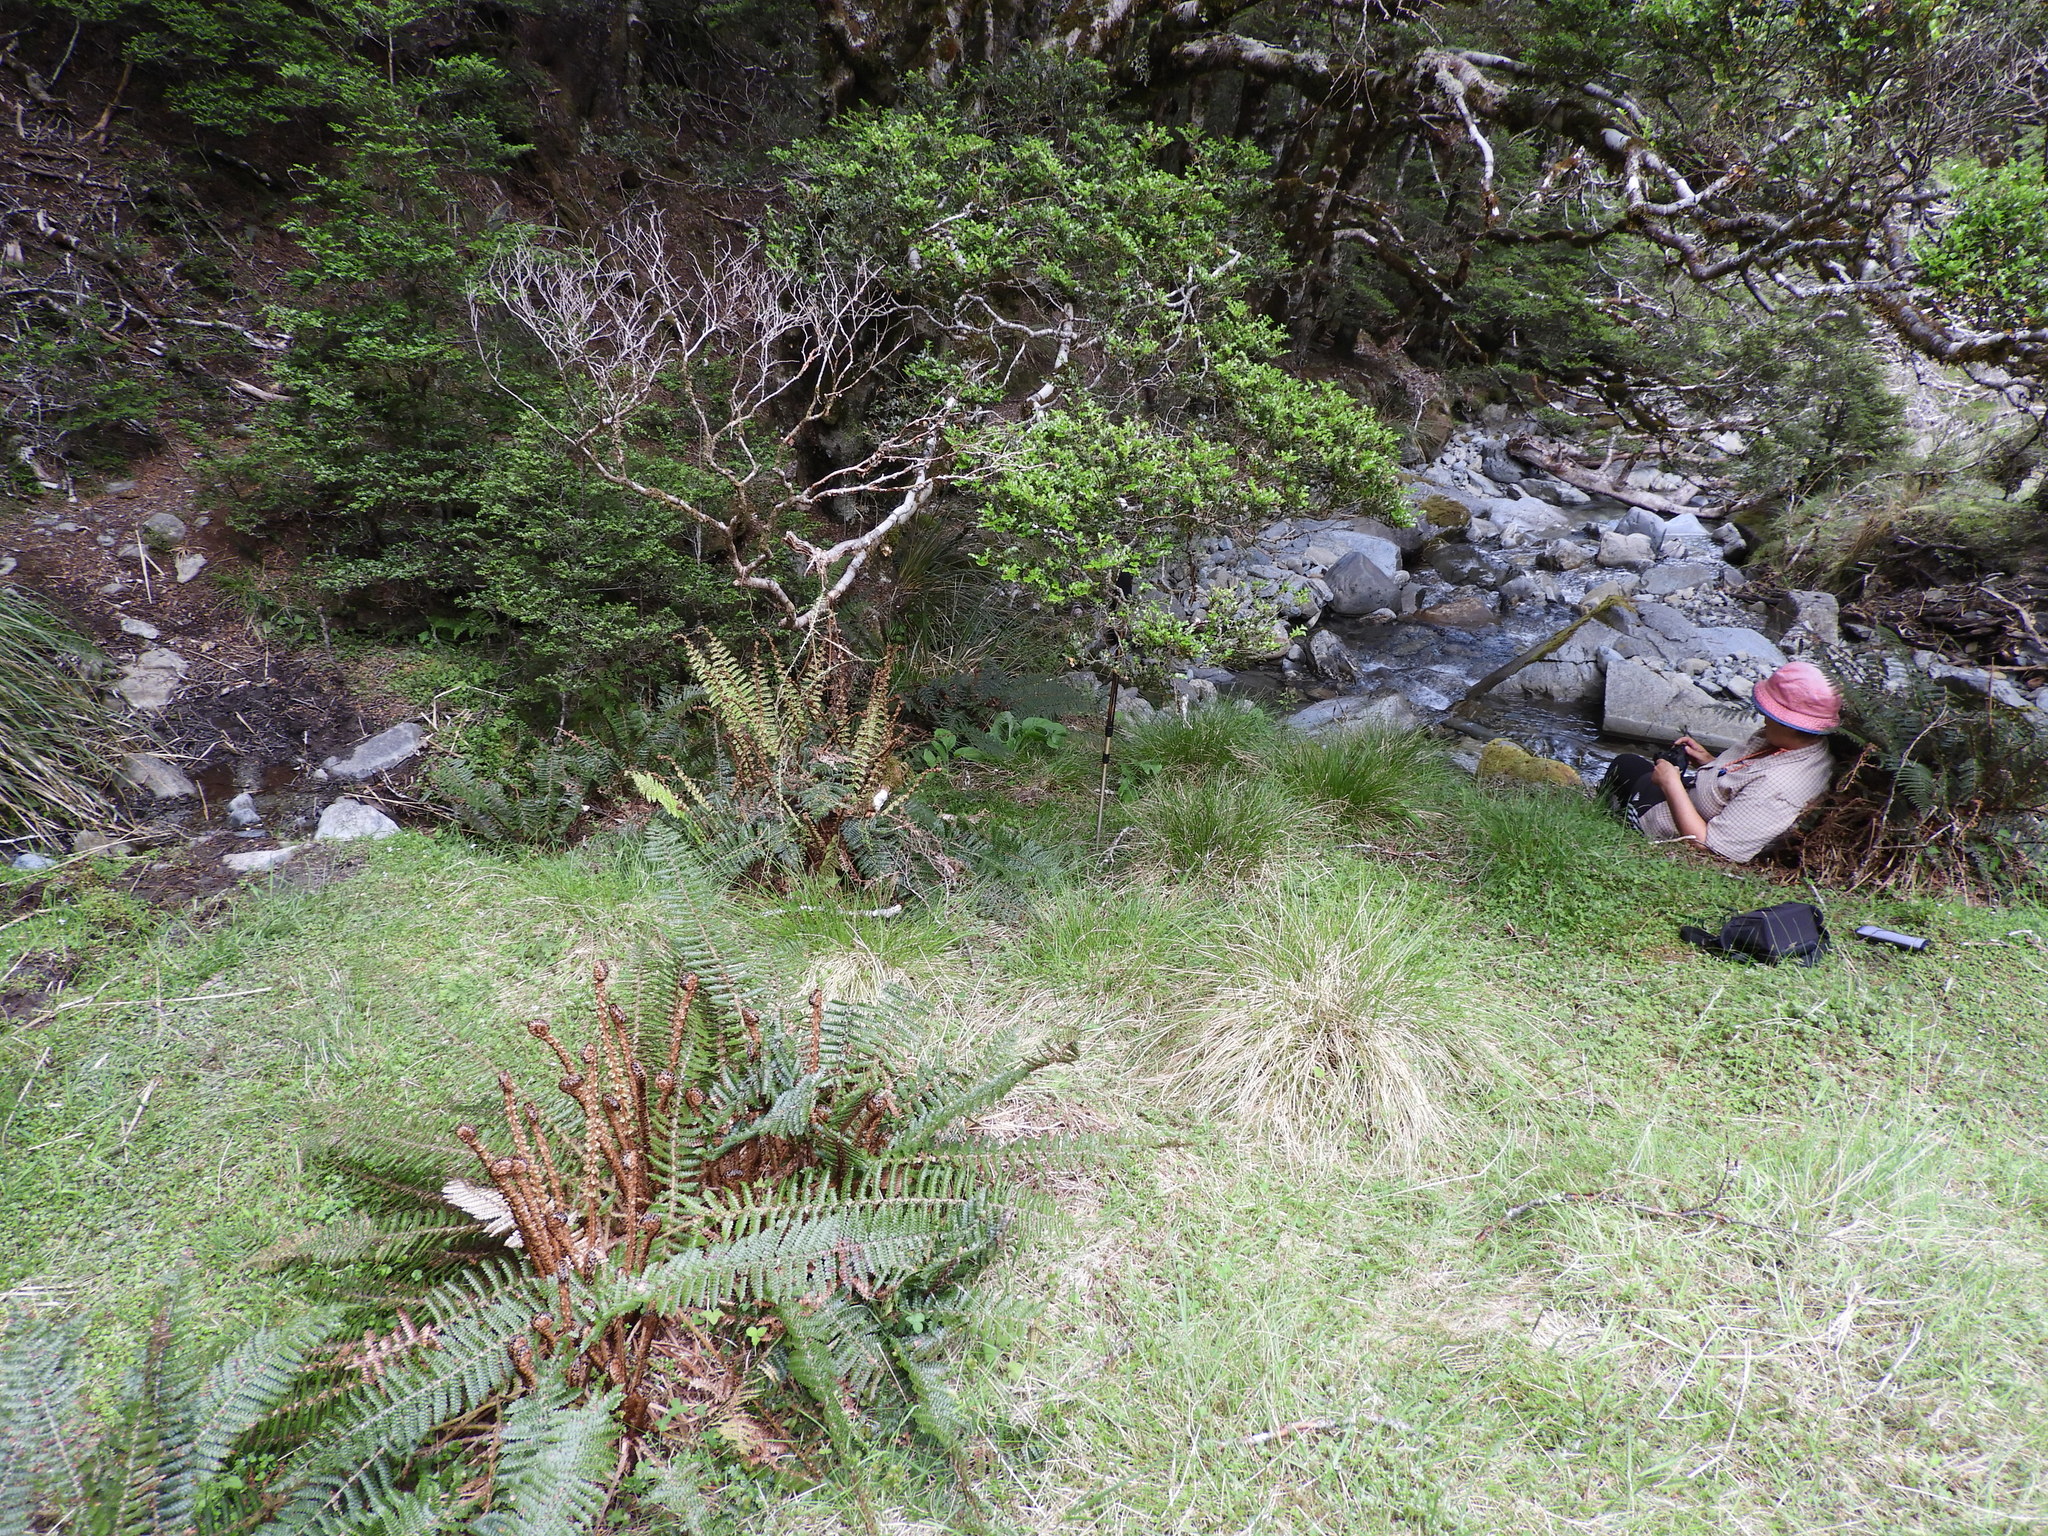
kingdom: Plantae
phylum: Tracheophyta
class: Liliopsida
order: Poales
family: Cyperaceae
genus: Carex
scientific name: Carex potens
